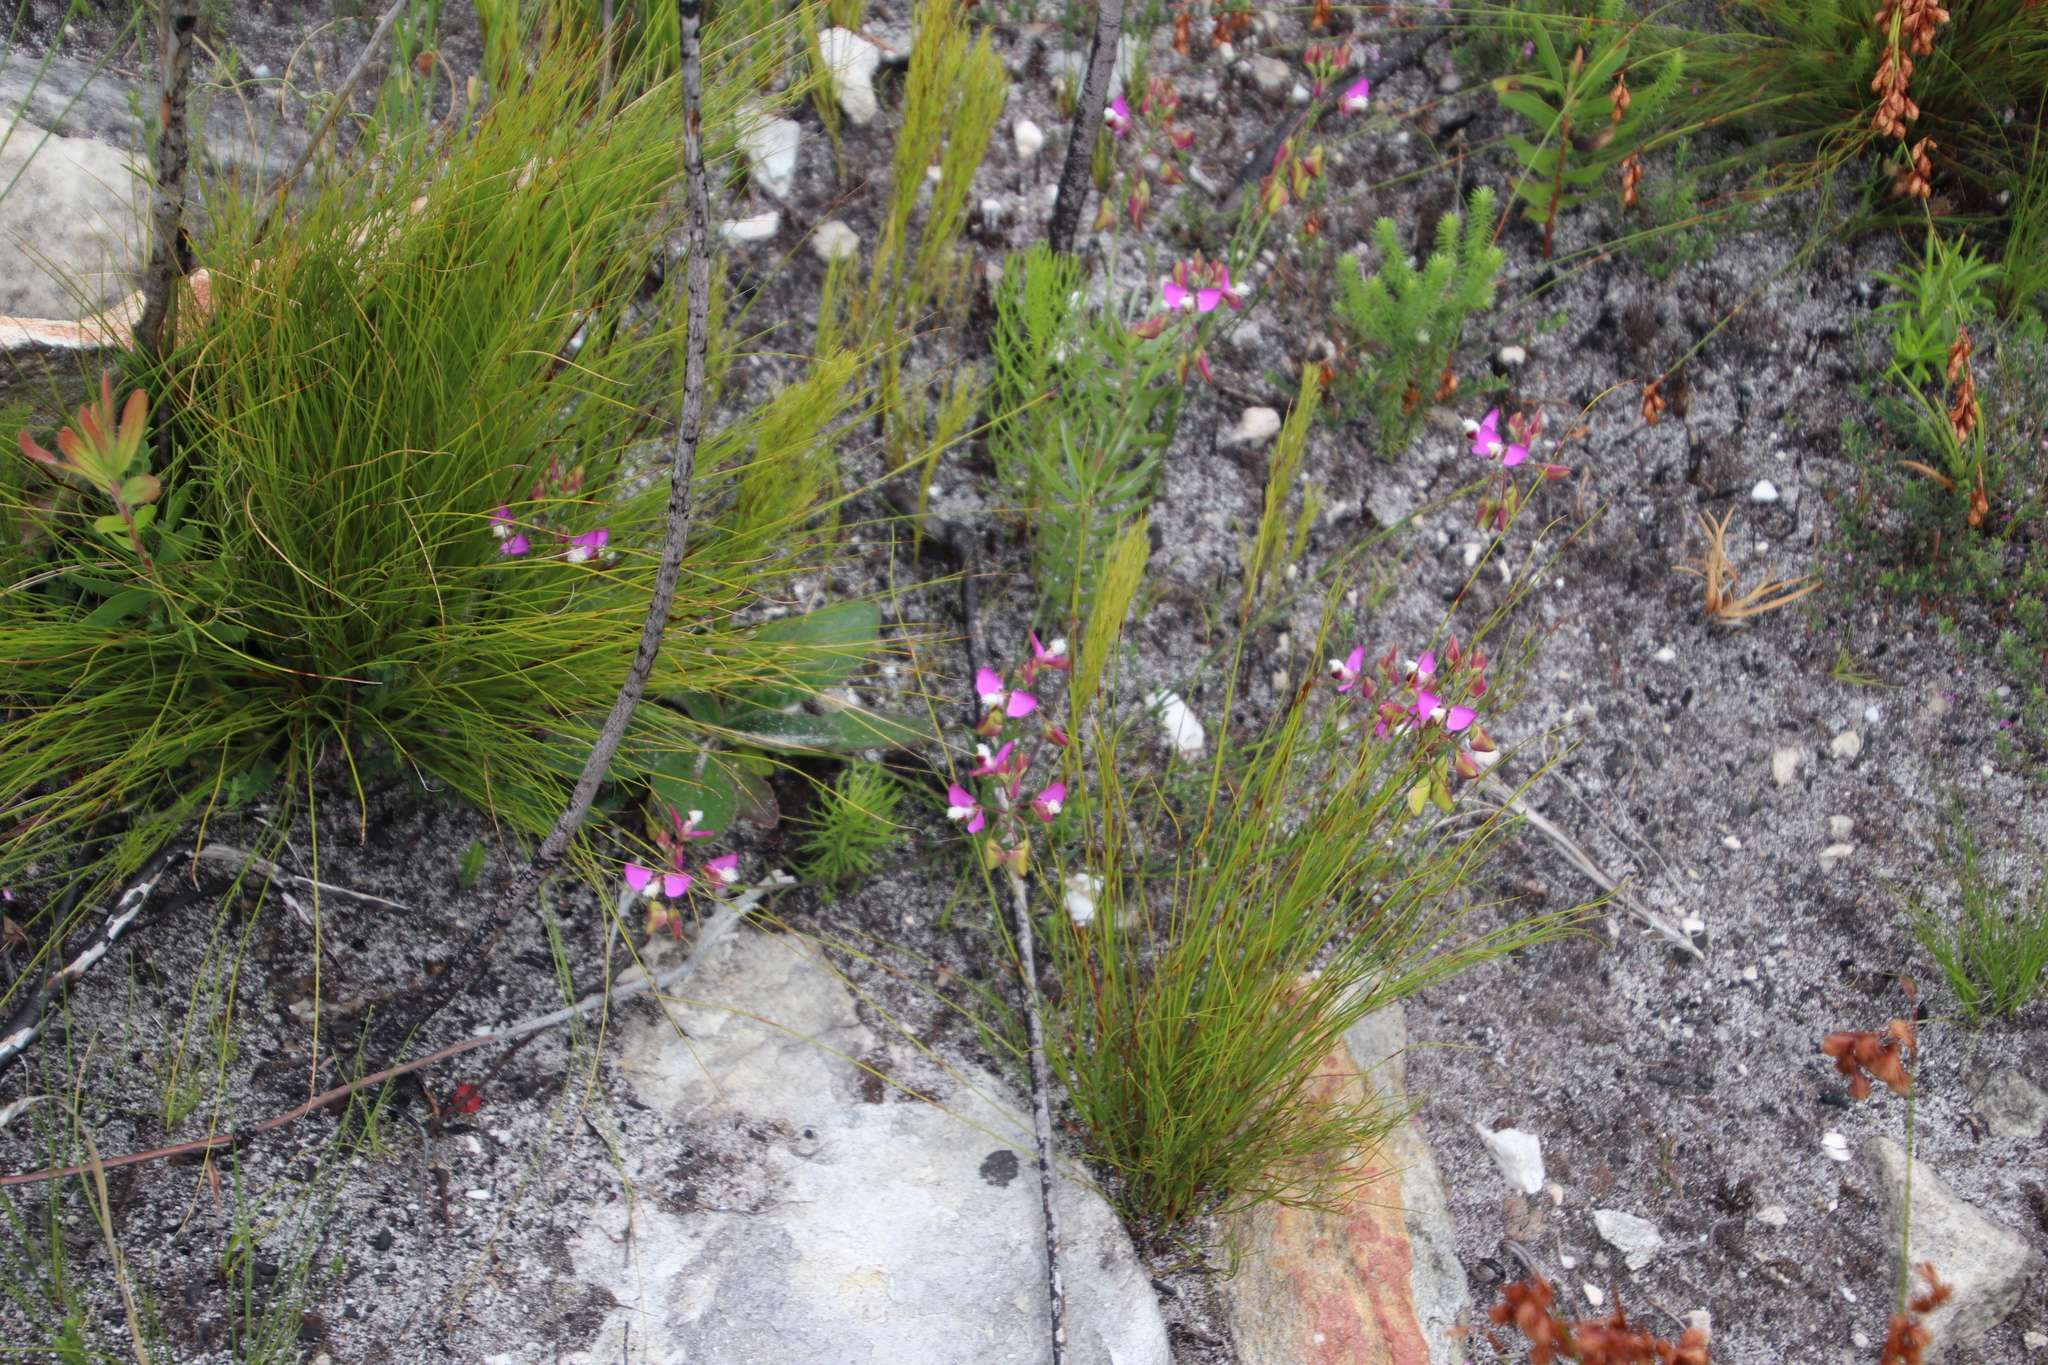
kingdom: Plantae
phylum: Tracheophyta
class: Magnoliopsida
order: Fabales
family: Polygalaceae
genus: Polygala
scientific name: Polygala bracteolata
